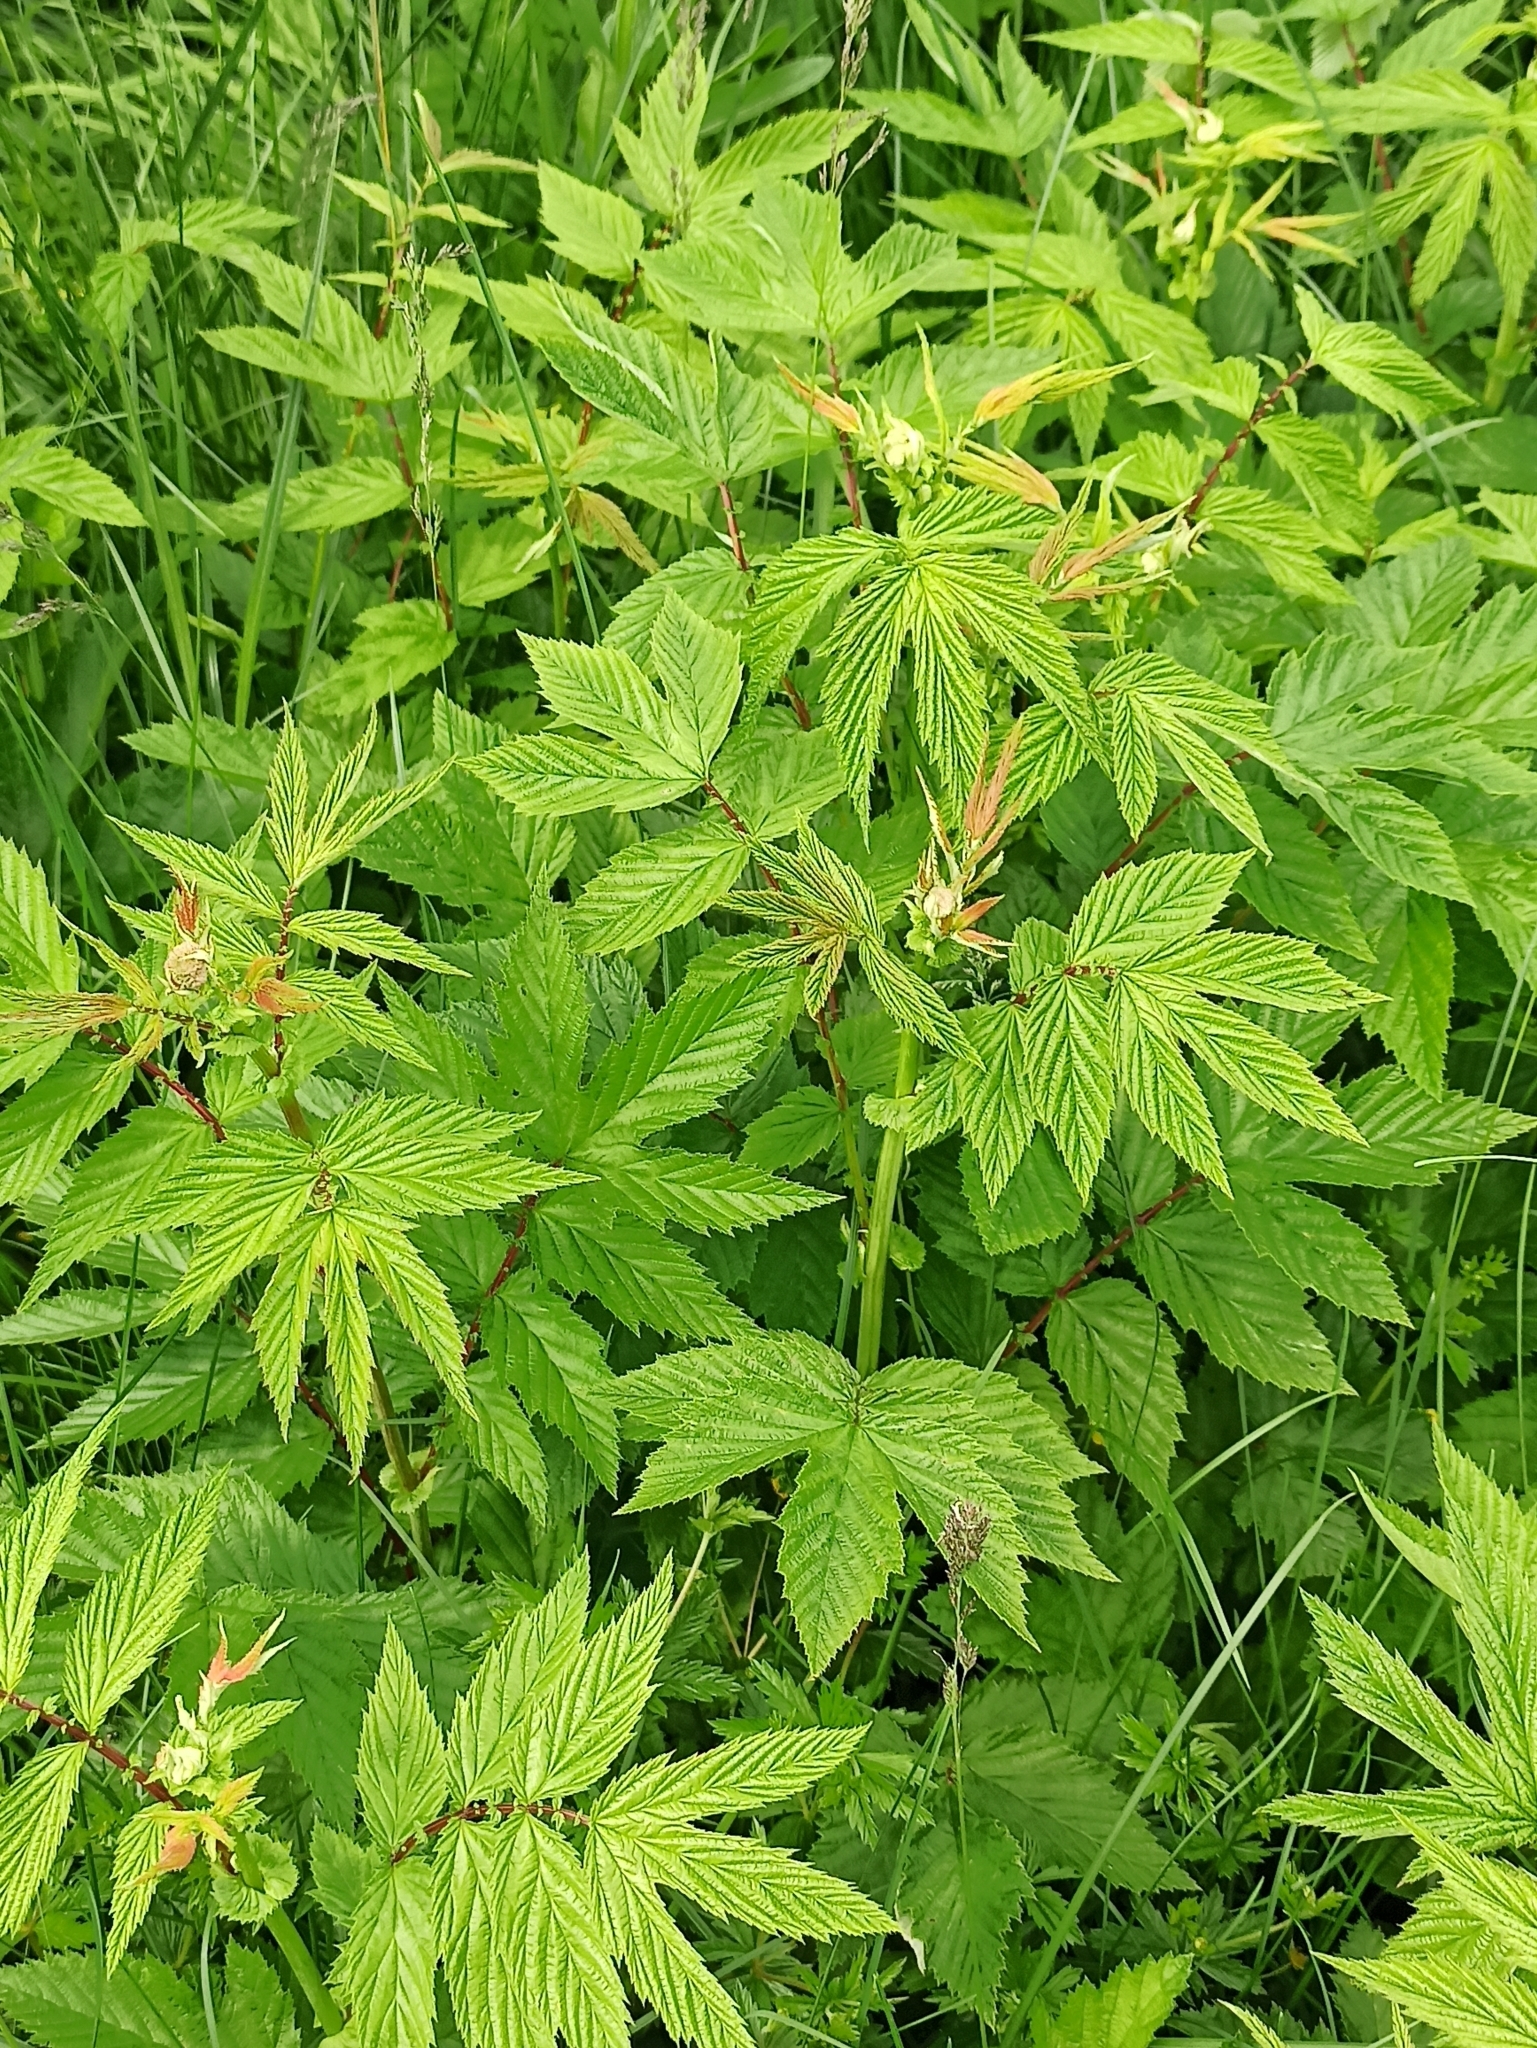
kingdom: Plantae
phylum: Tracheophyta
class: Magnoliopsida
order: Rosales
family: Rosaceae
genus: Filipendula
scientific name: Filipendula ulmaria
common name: Meadowsweet
